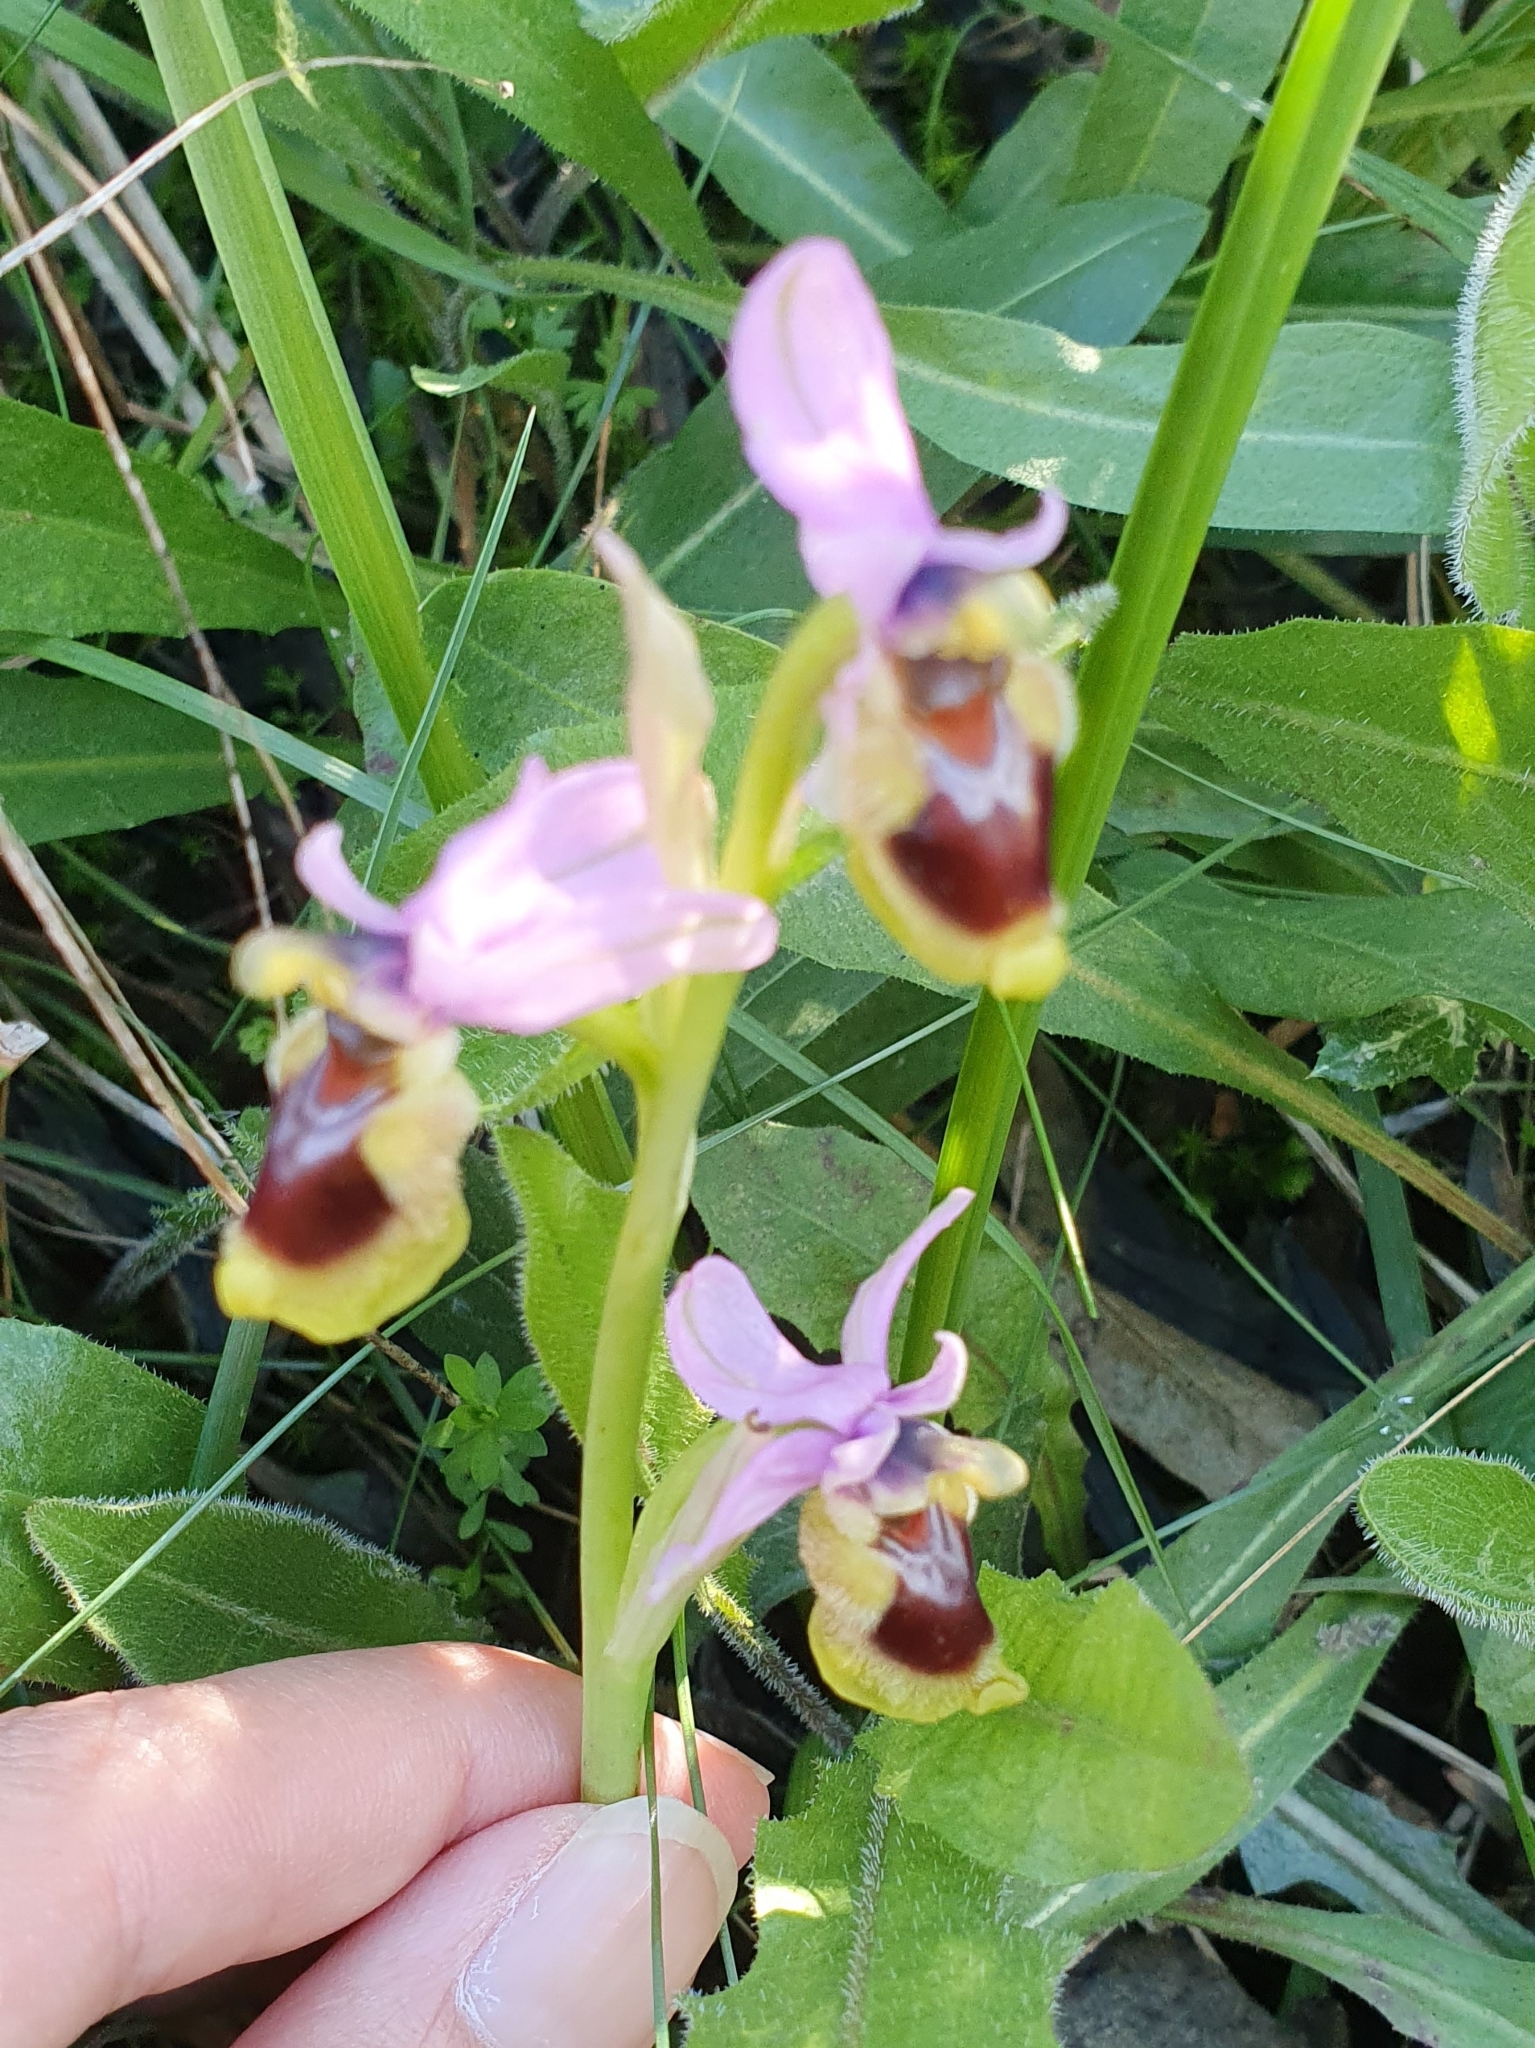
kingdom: Plantae
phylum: Tracheophyta
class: Liliopsida
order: Asparagales
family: Orchidaceae
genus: Ophrys
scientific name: Ophrys tenthredinifera
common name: Sawfly orchid
